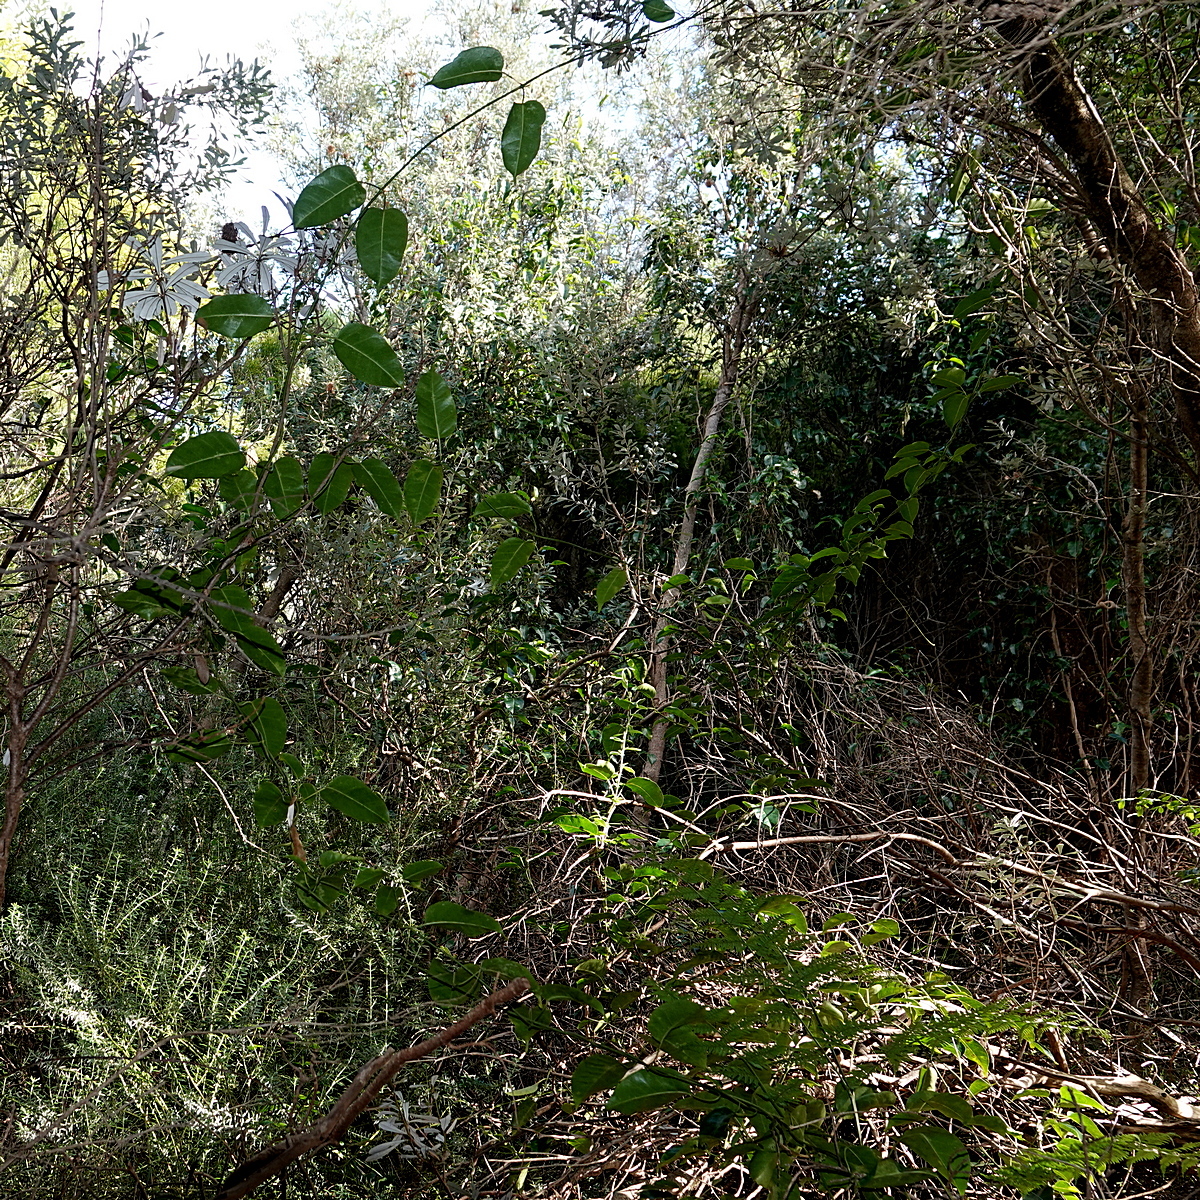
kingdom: Plantae
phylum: Tracheophyta
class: Magnoliopsida
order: Gentianales
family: Apocynaceae
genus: Leichhardtia
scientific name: Leichhardtia rostrata
